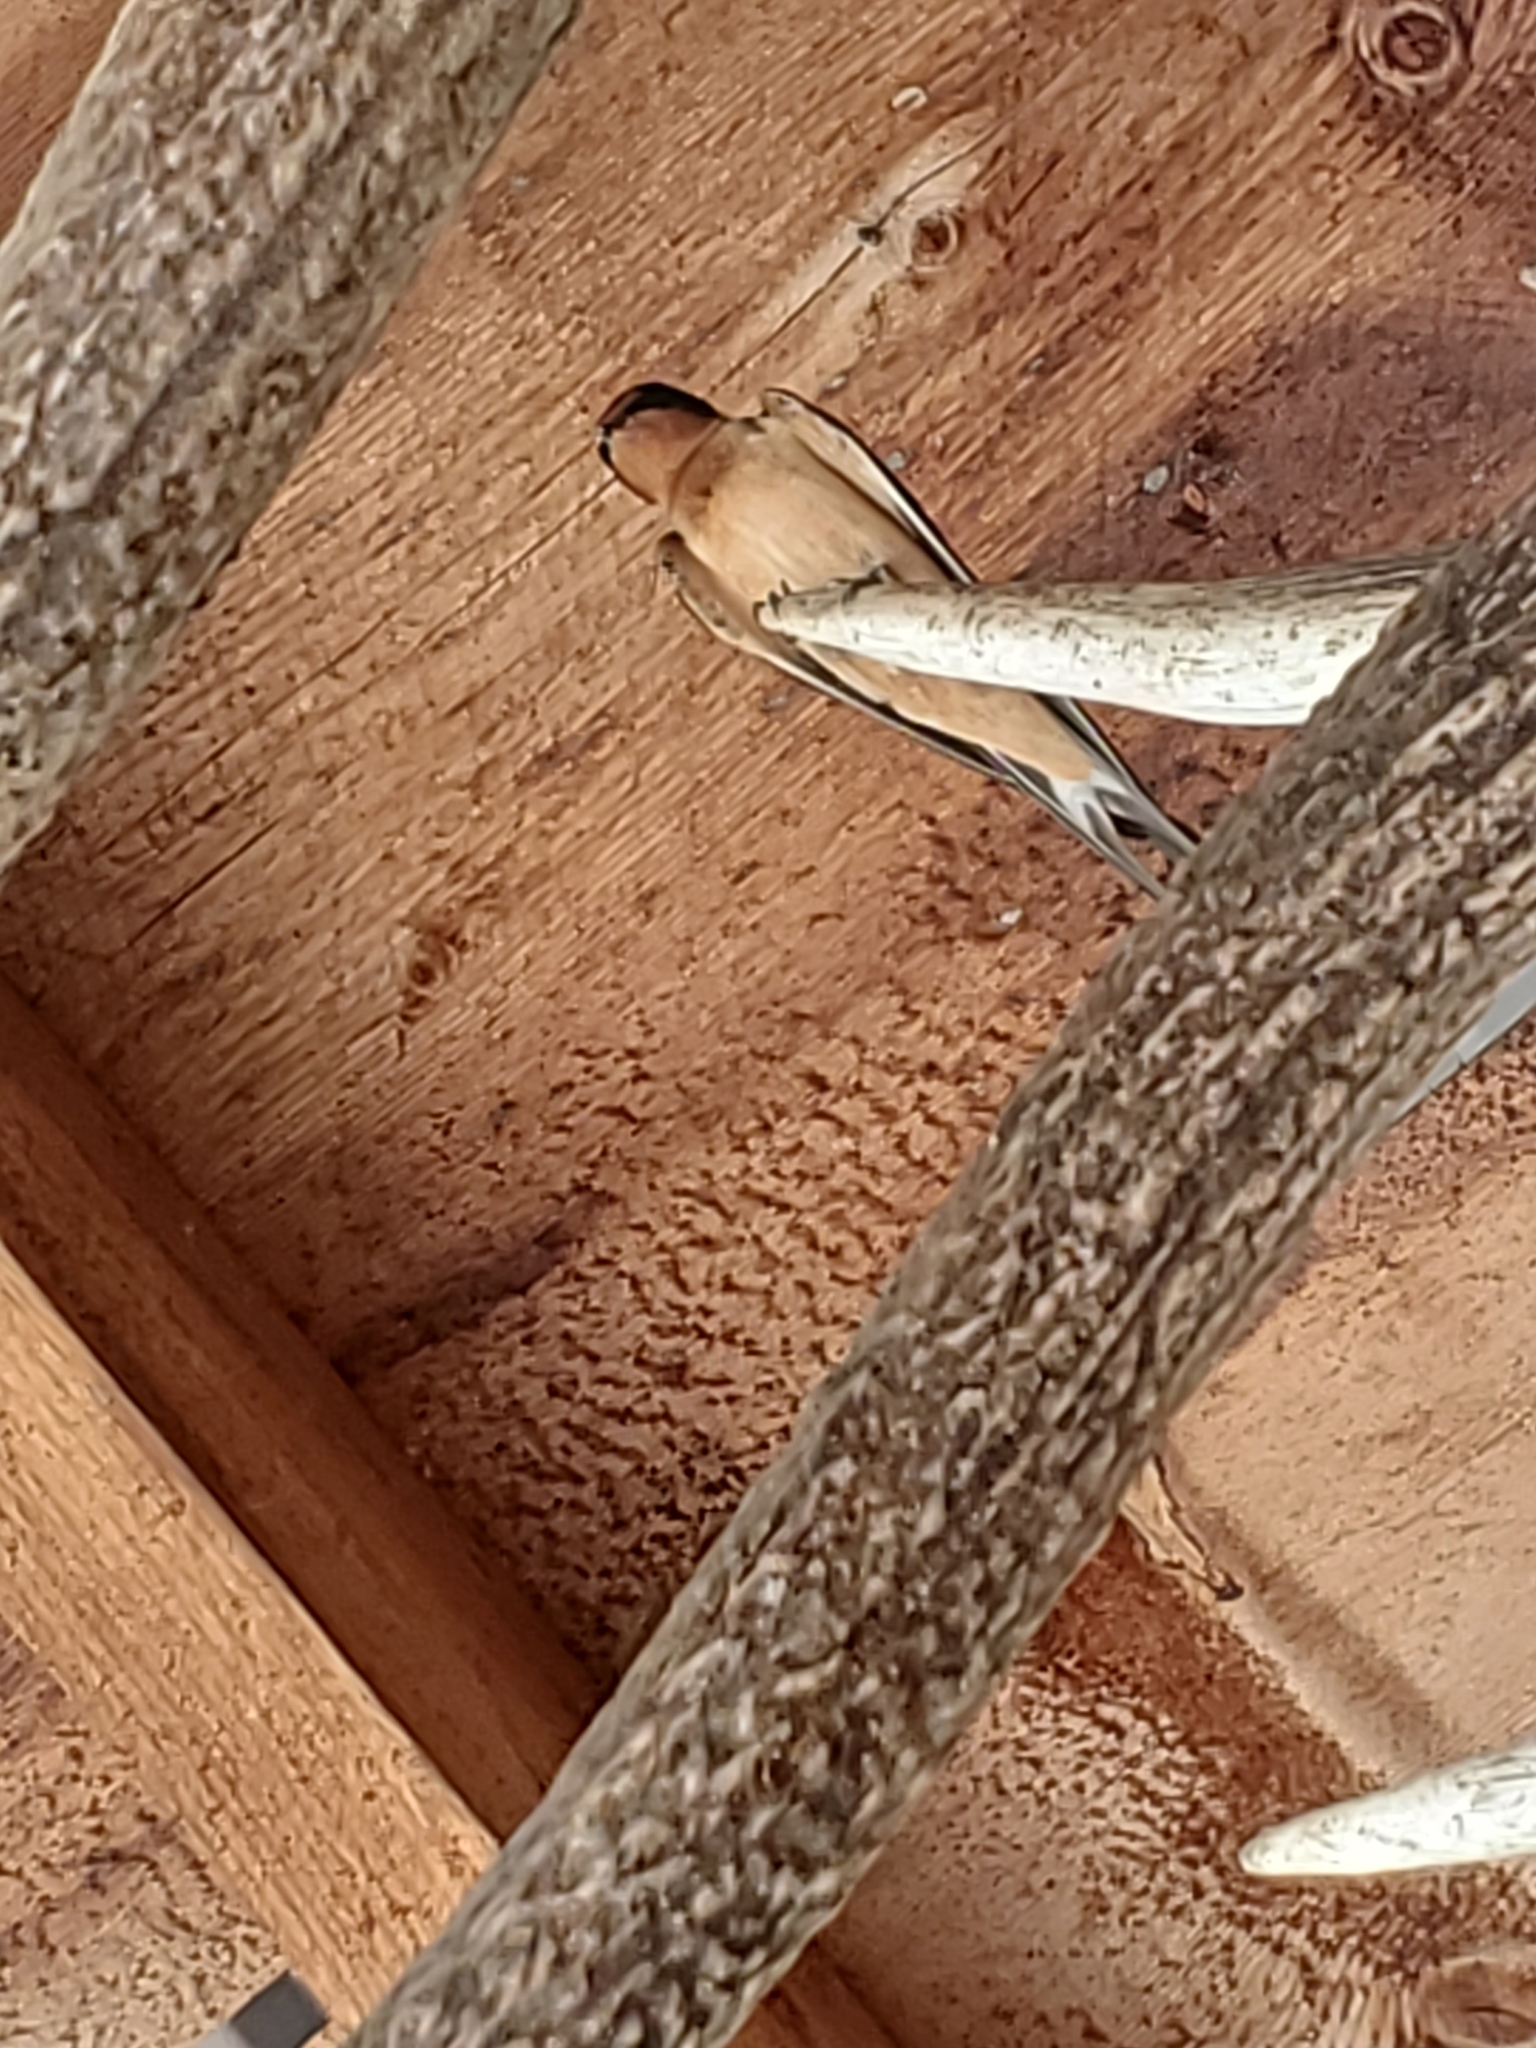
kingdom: Animalia
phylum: Chordata
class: Aves
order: Passeriformes
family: Hirundinidae
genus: Hirundo
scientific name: Hirundo rustica
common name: Barn swallow
